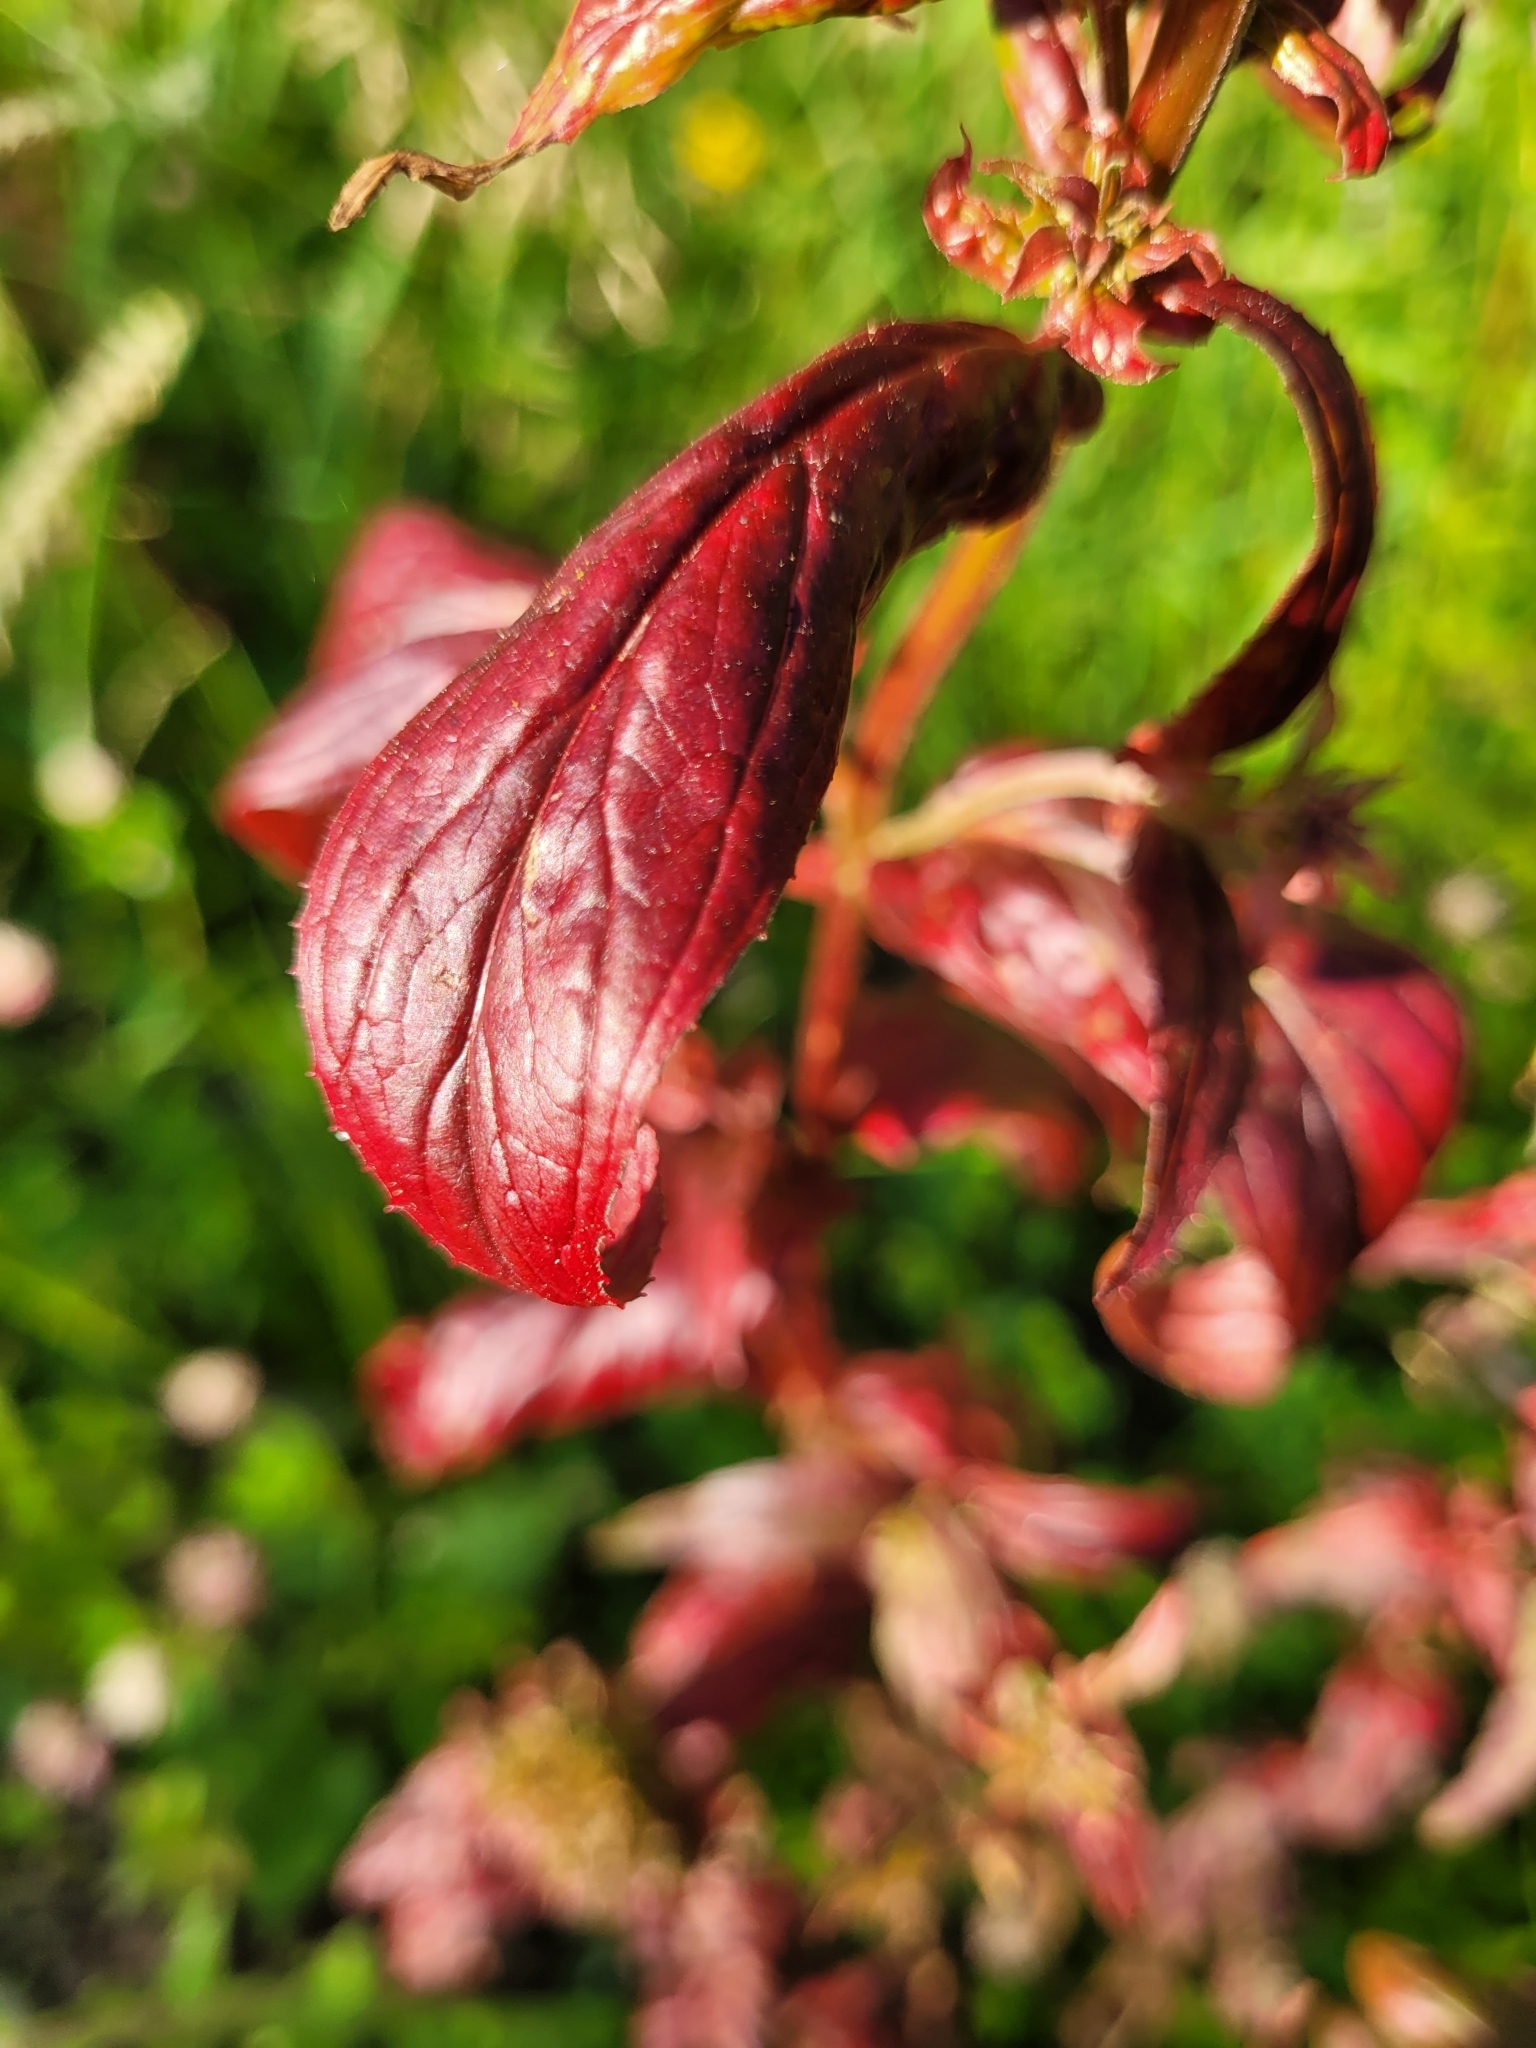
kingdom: Plantae
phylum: Tracheophyta
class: Magnoliopsida
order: Myrtales
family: Onagraceae
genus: Epilobium
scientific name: Epilobium ciliatum
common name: American willowherb
